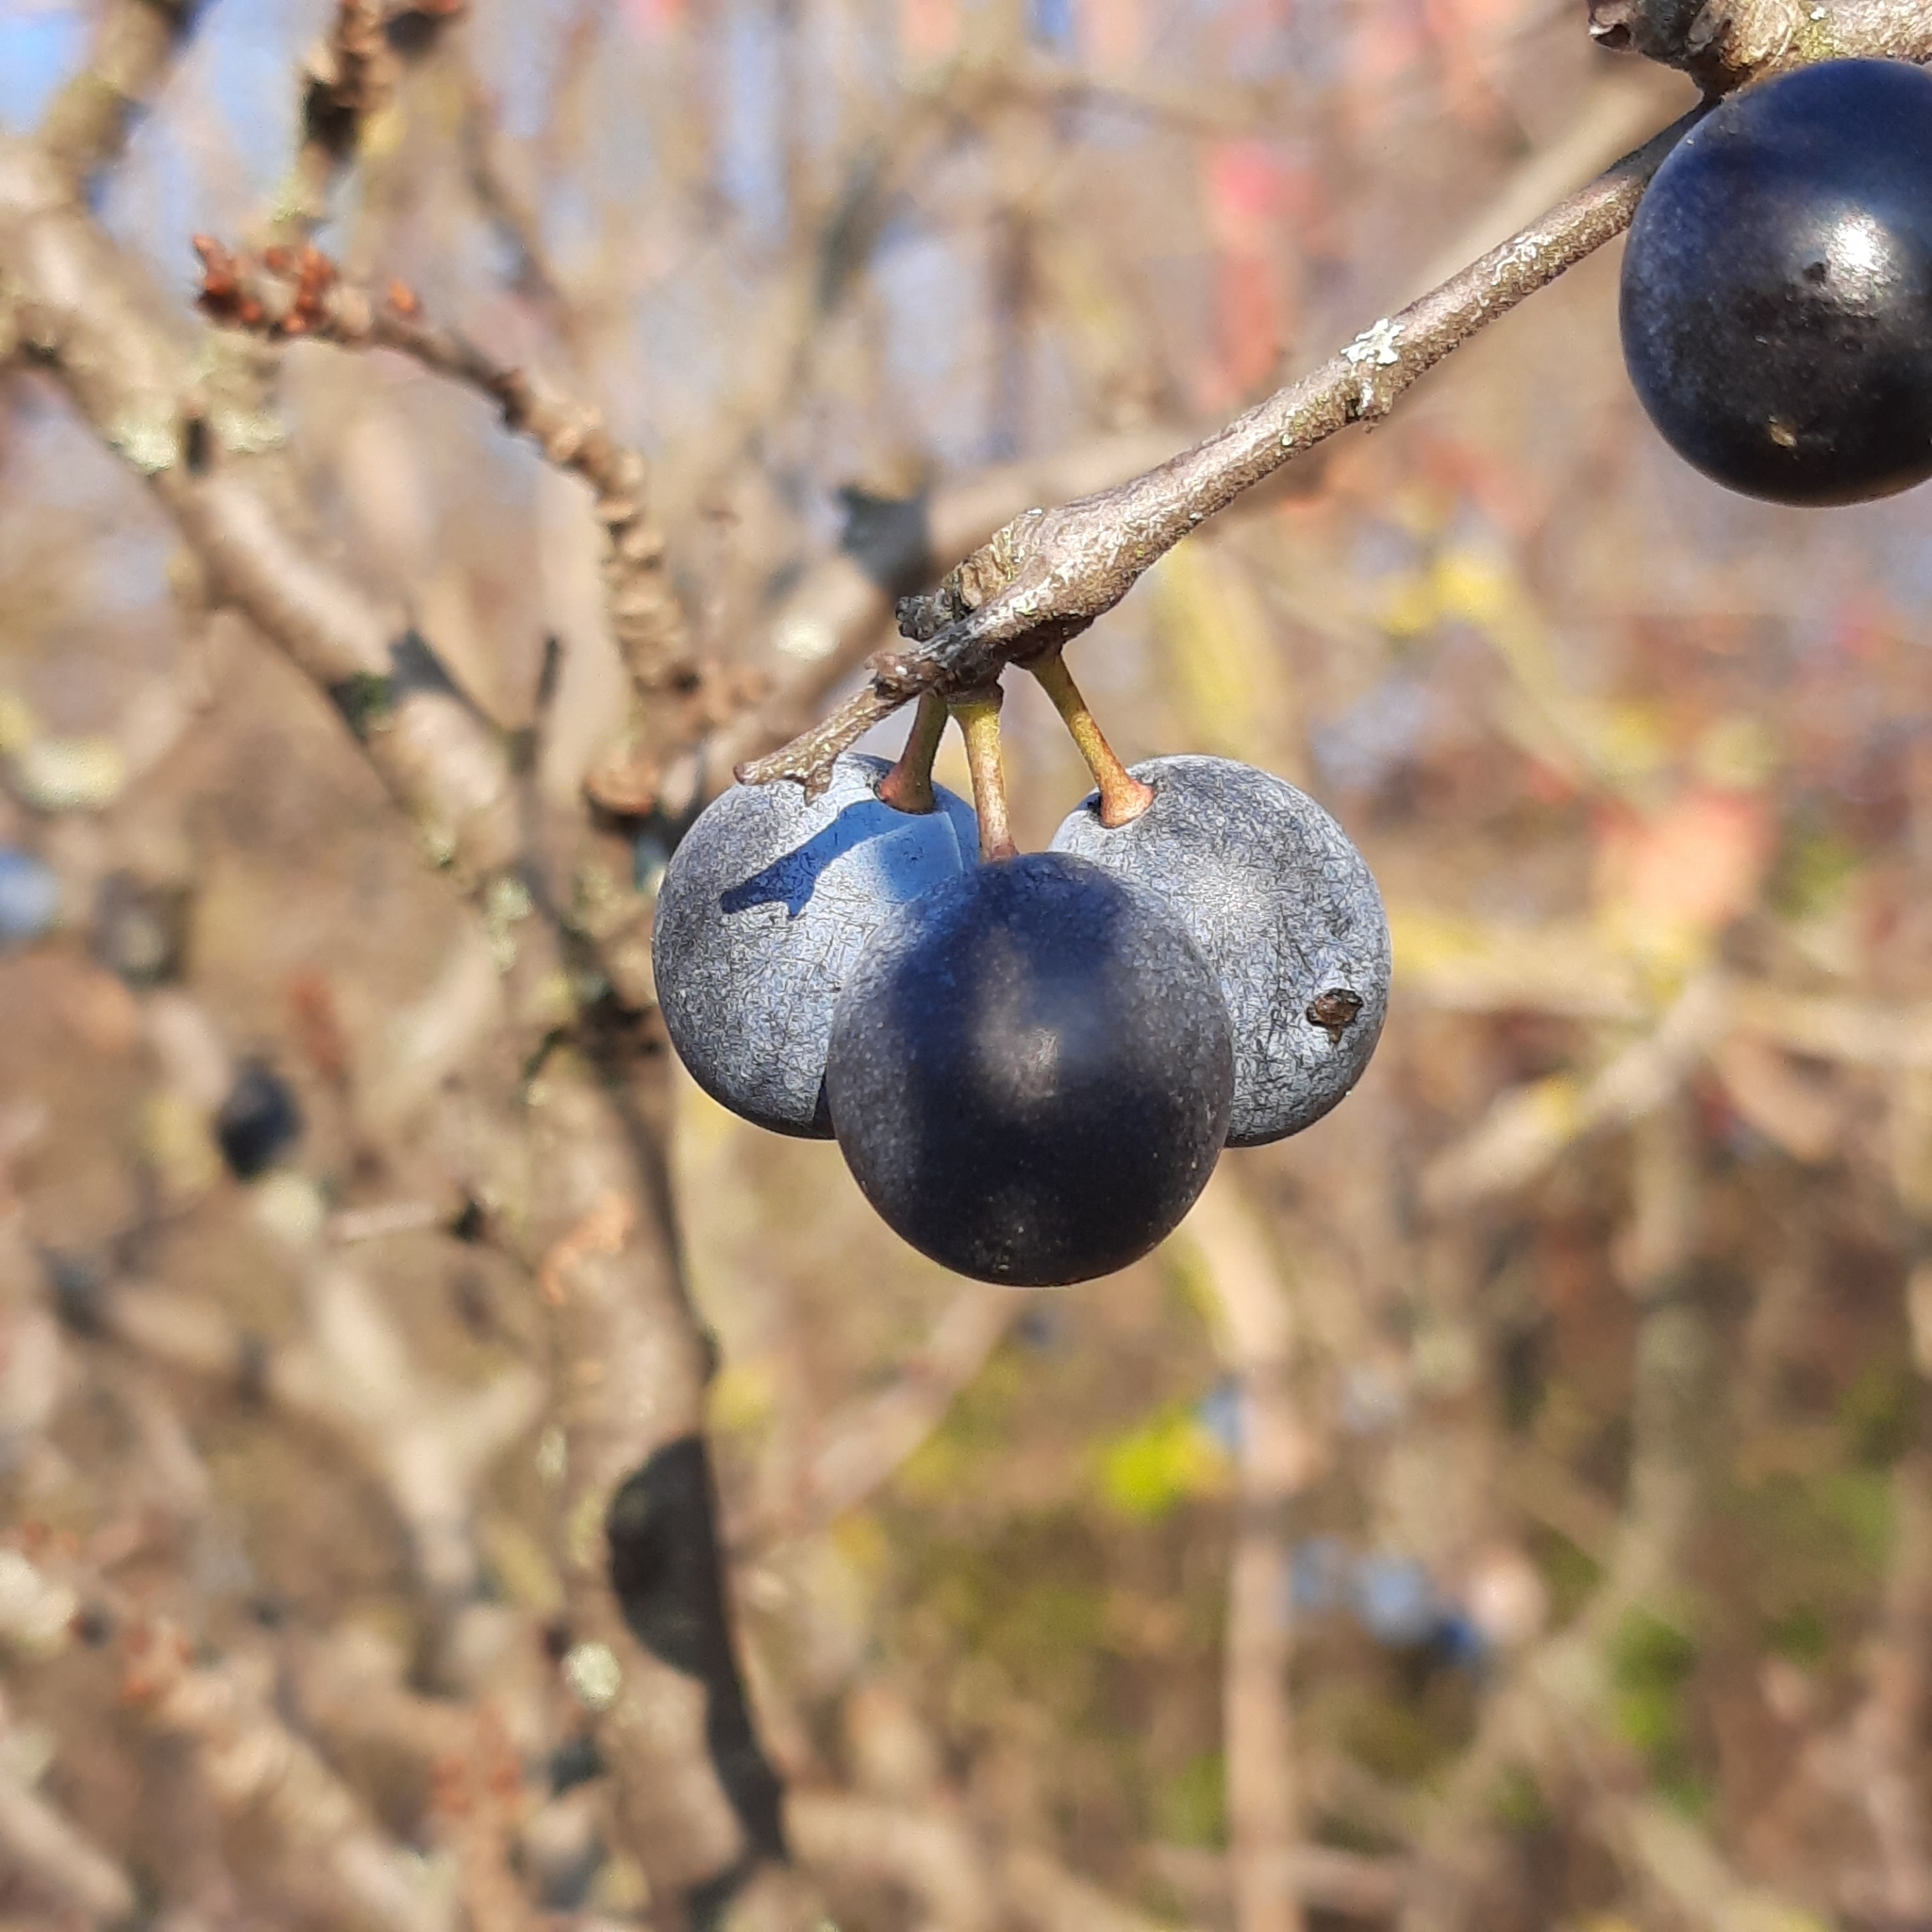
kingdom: Plantae
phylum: Tracheophyta
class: Magnoliopsida
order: Rosales
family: Rosaceae
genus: Prunus
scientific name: Prunus spinosa
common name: Blackthorn
